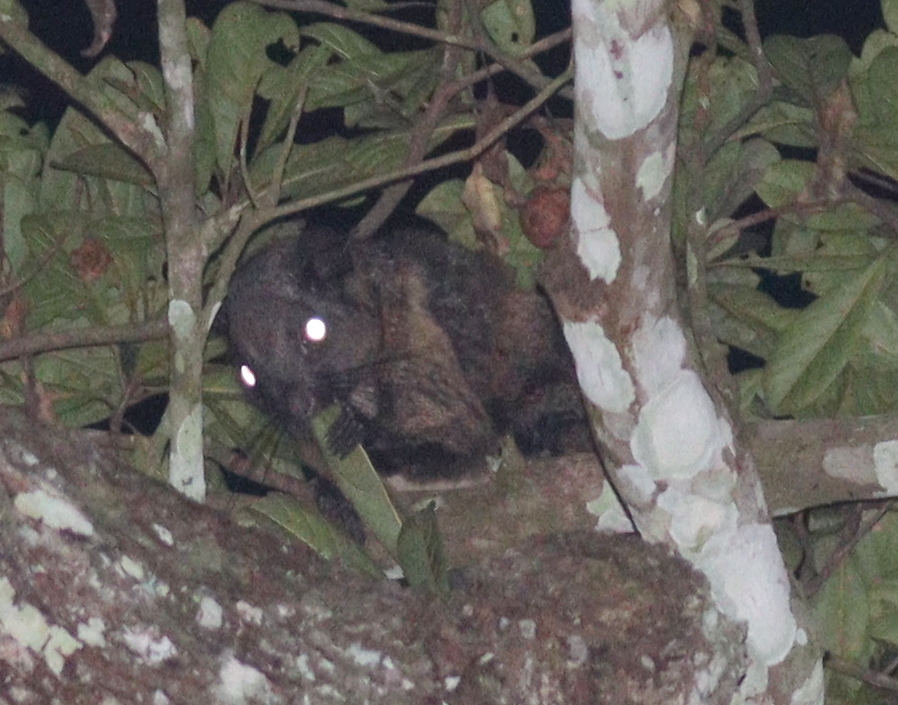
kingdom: Animalia
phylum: Chordata
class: Mammalia
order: Rodentia
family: Anomaluridae
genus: Anomalurus
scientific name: Anomalurus derbianus
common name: Lord derby's flying squirrel
